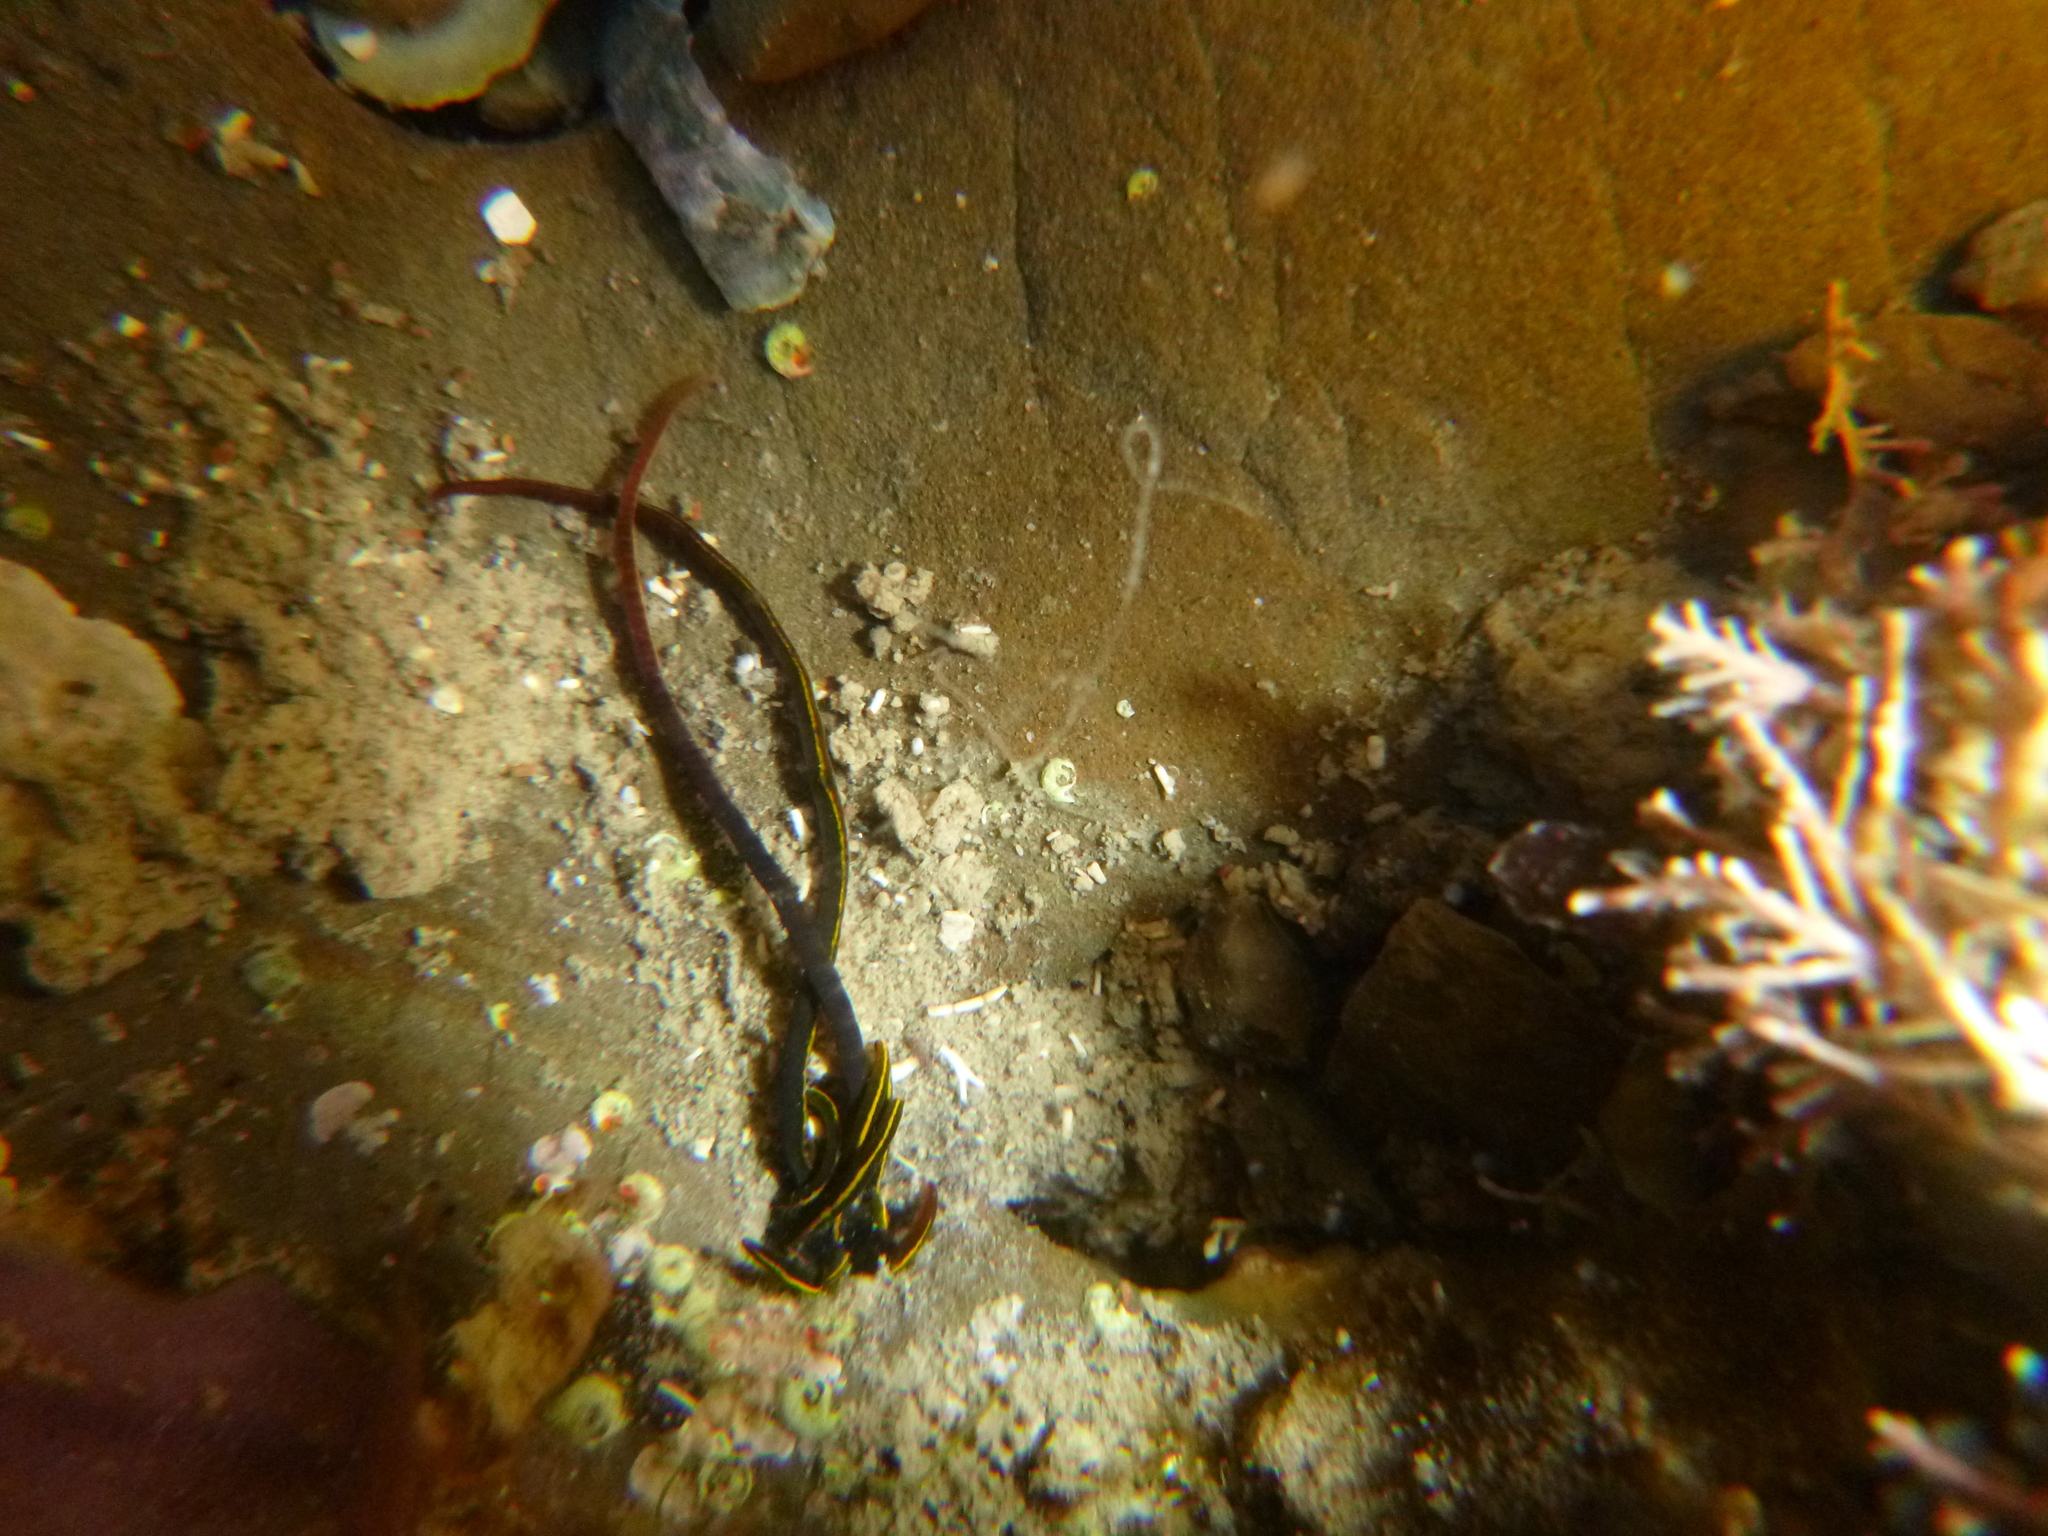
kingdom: Animalia
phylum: Annelida
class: Polychaeta
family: Acrocirridae
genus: Acrocirrus
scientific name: Acrocirrus
